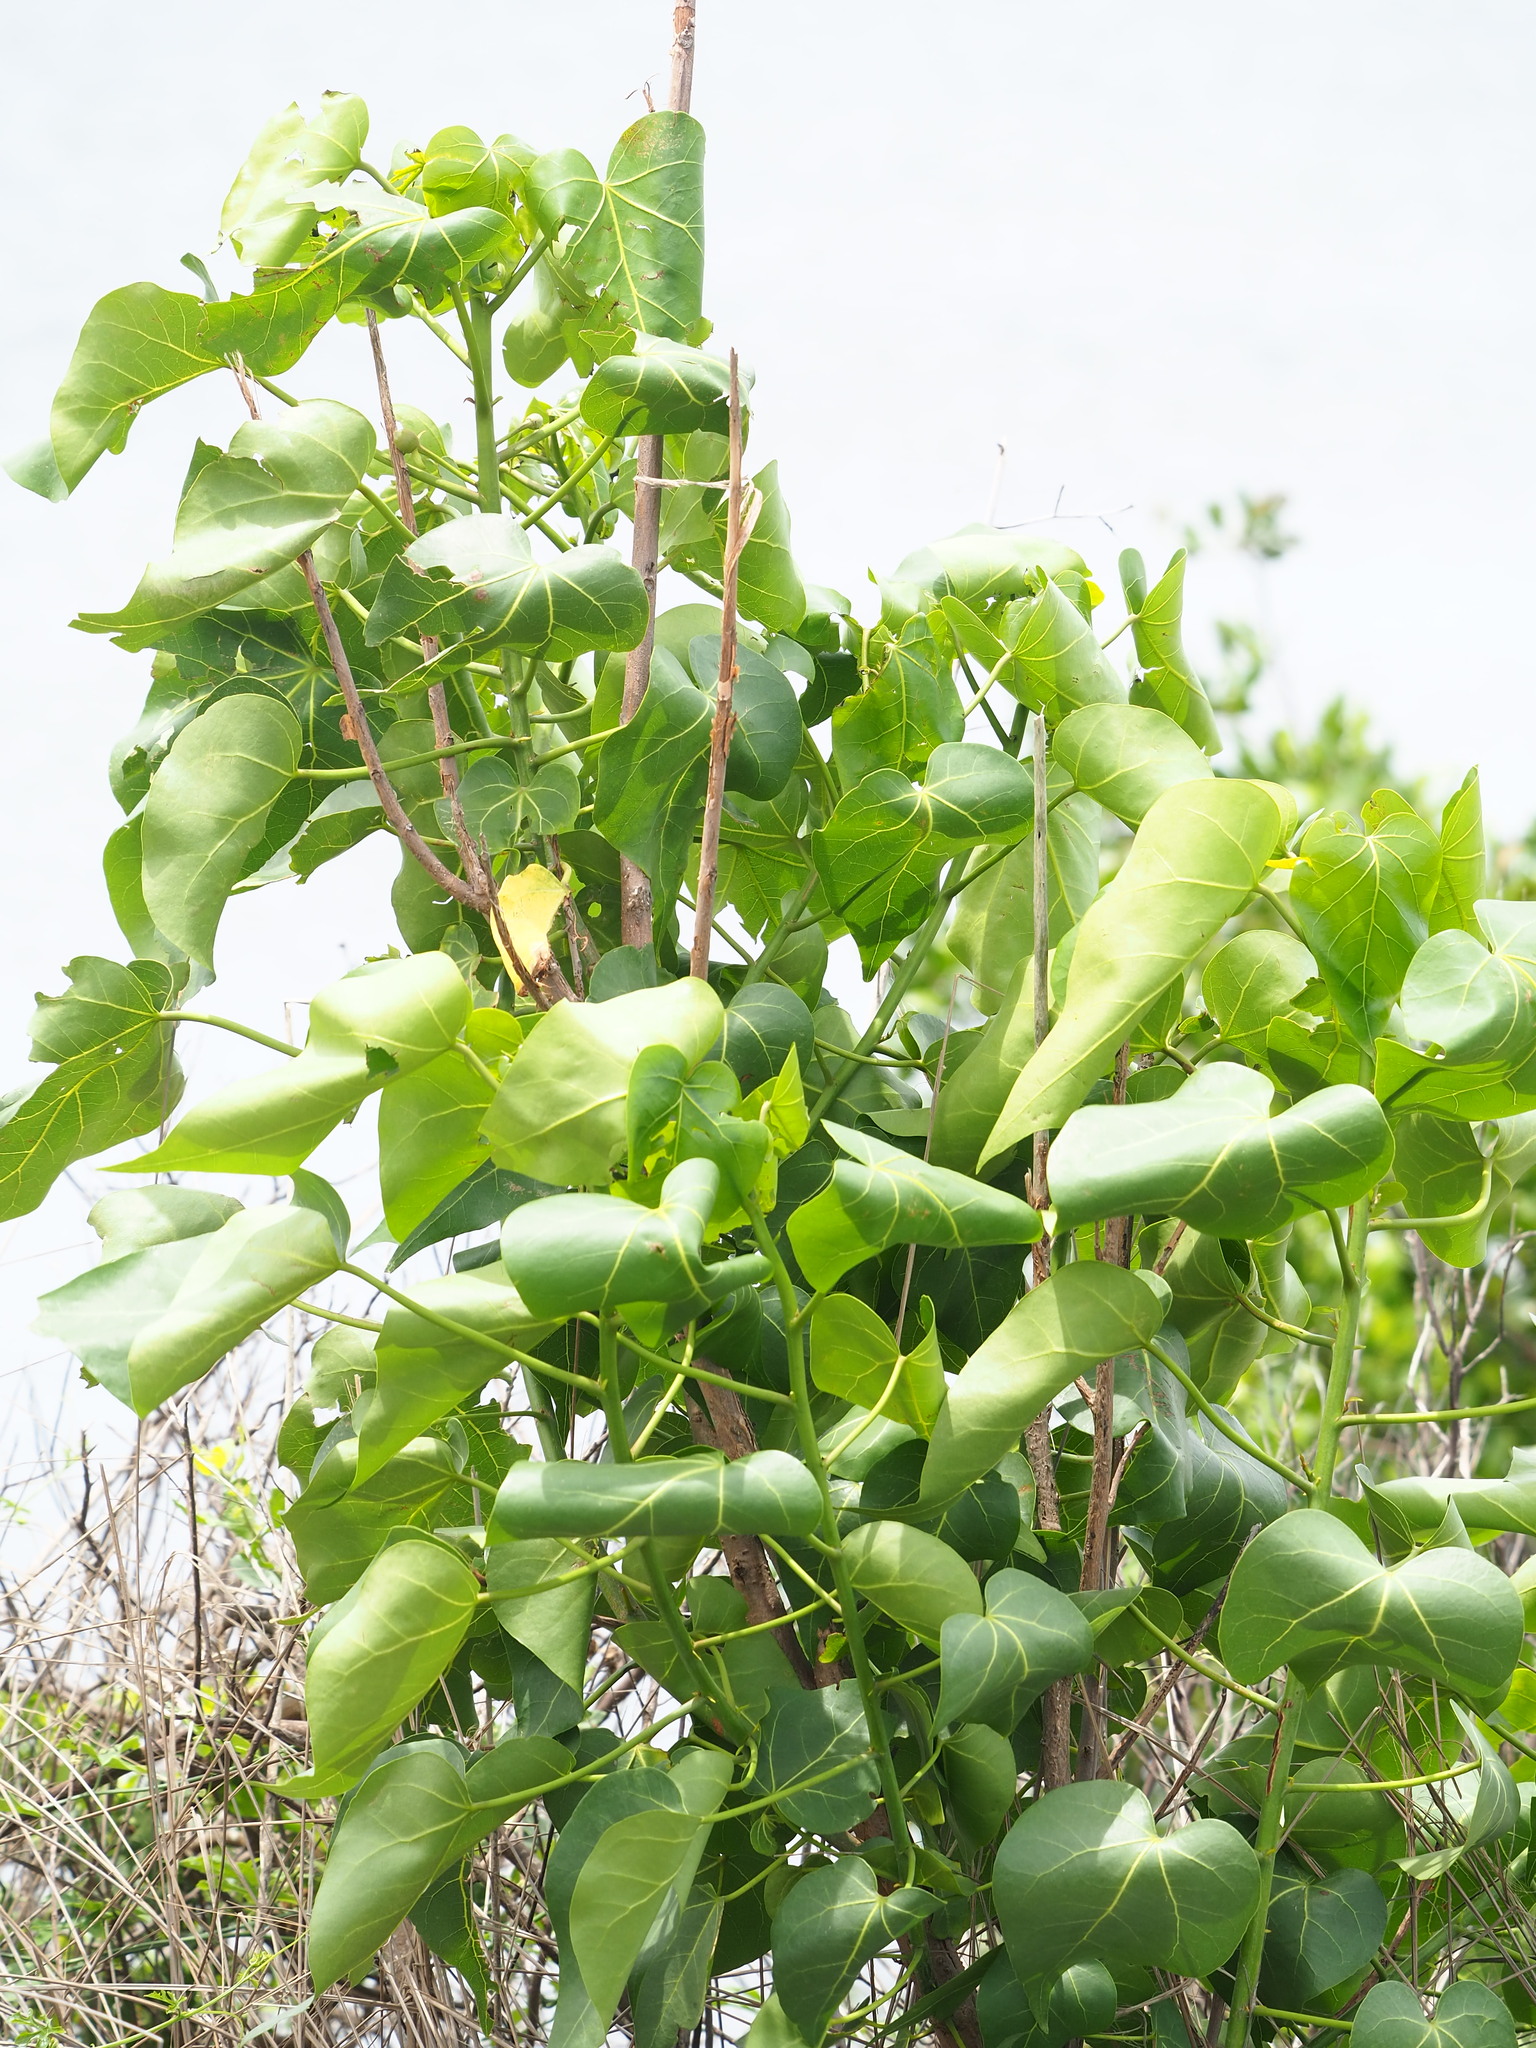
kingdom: Plantae
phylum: Tracheophyta
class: Magnoliopsida
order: Malvales
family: Malvaceae
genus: Thespesia
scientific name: Thespesia populnea
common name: Seaside mahoe
